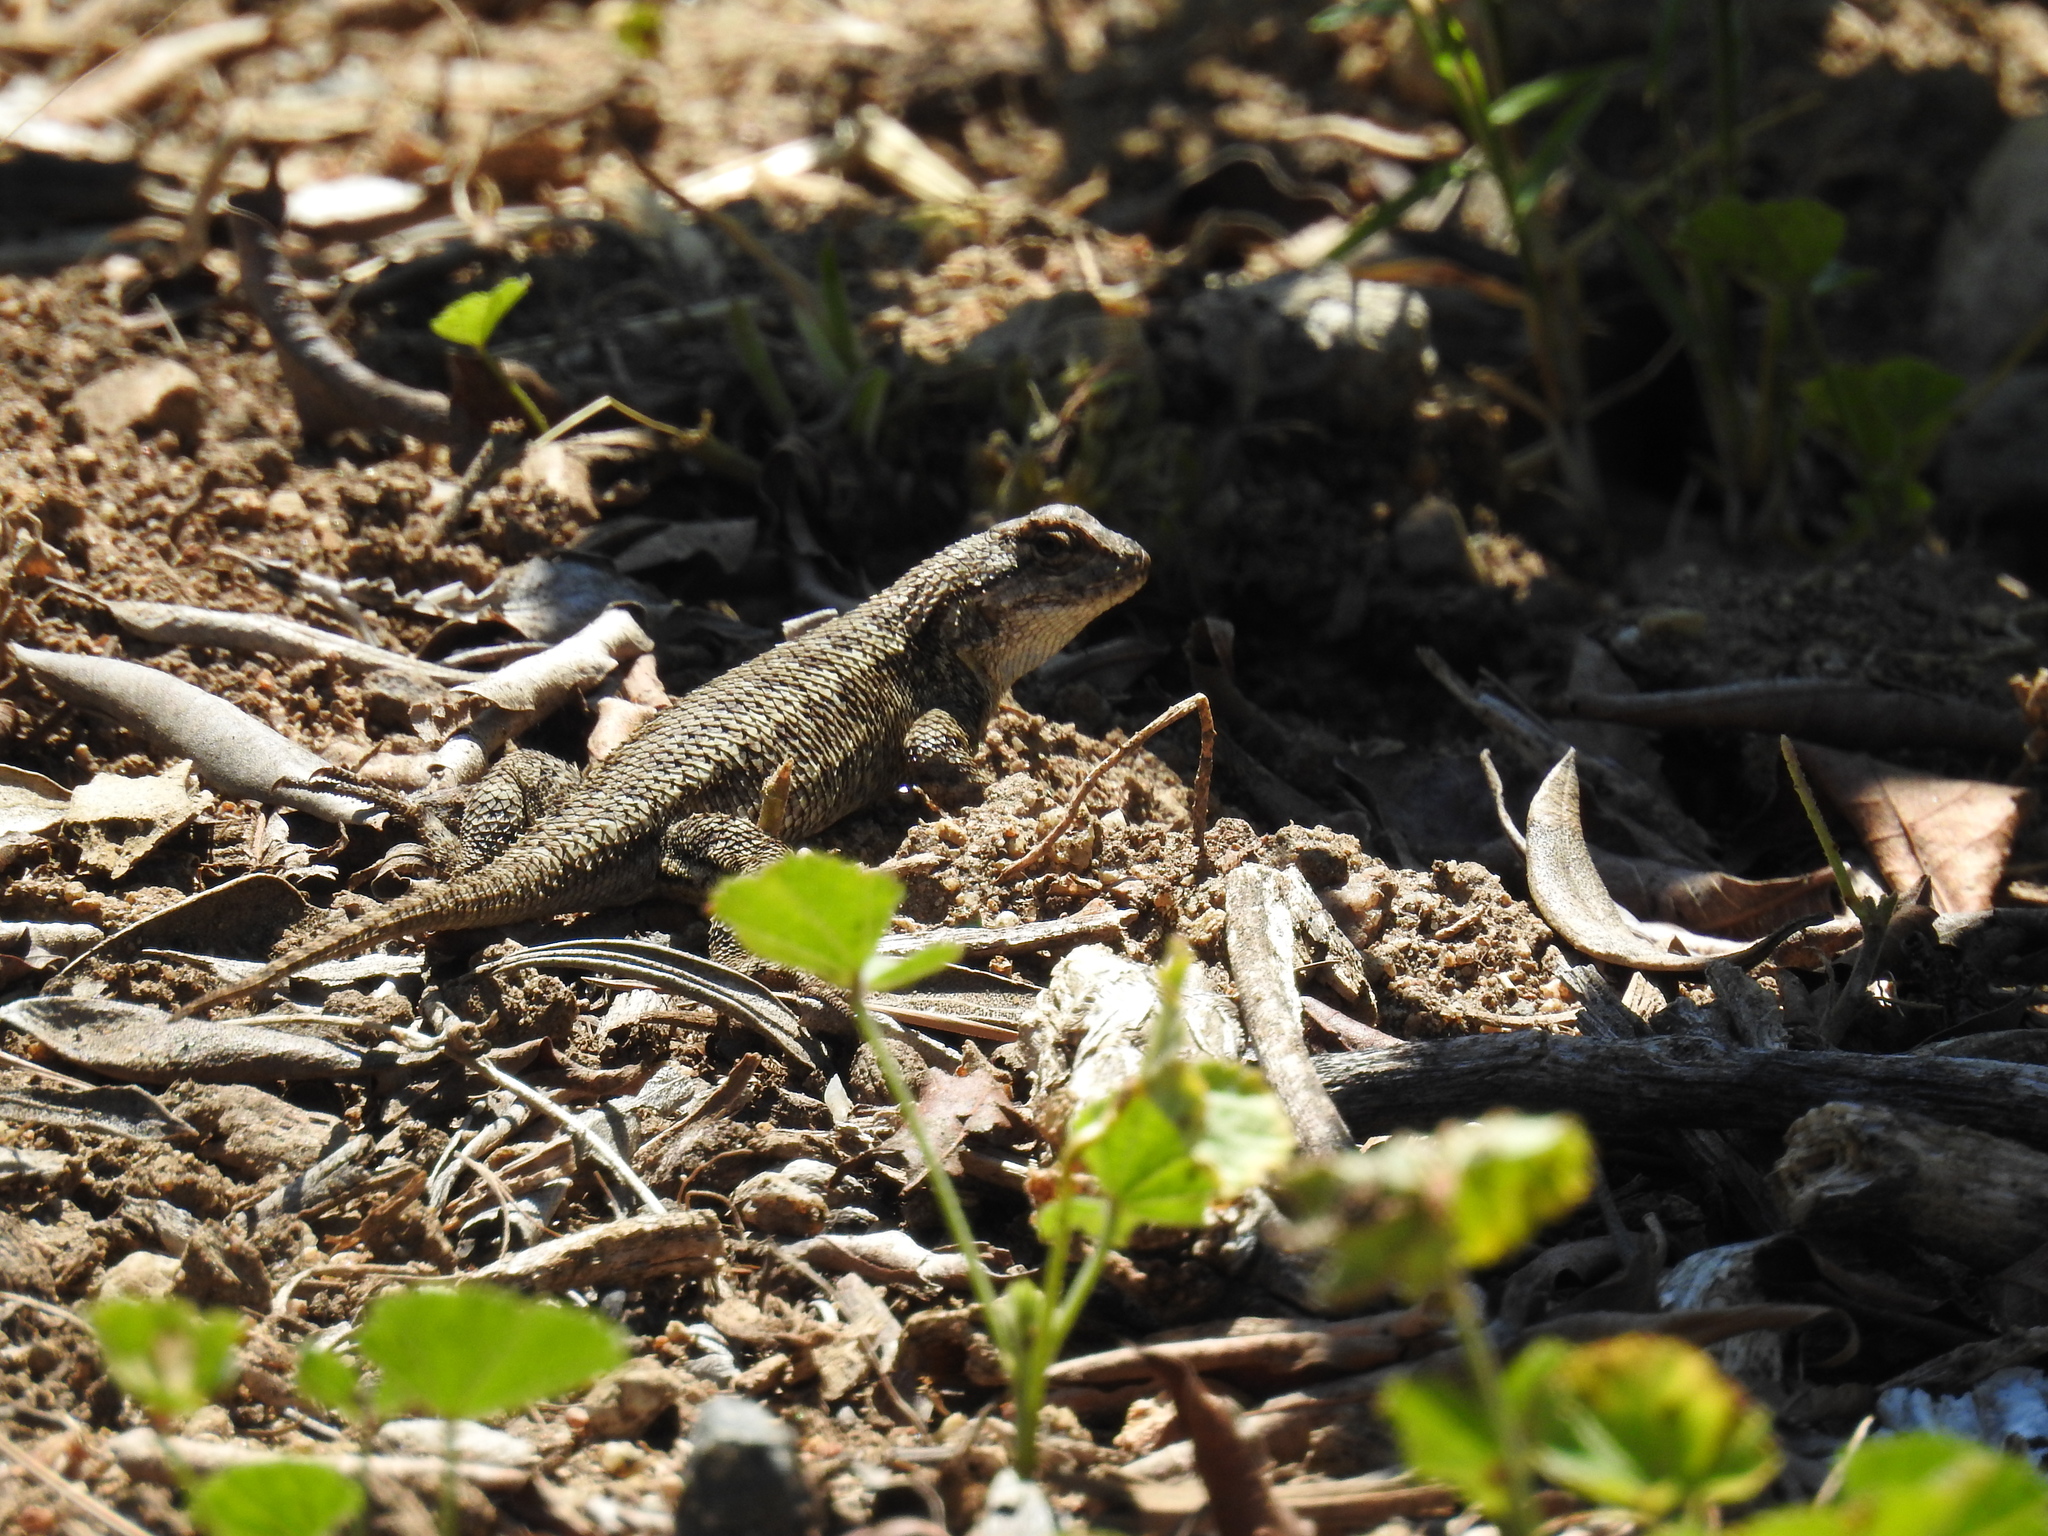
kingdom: Animalia
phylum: Chordata
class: Squamata
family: Phrynosomatidae
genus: Sceloporus
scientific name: Sceloporus occidentalis
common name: Western fence lizard
